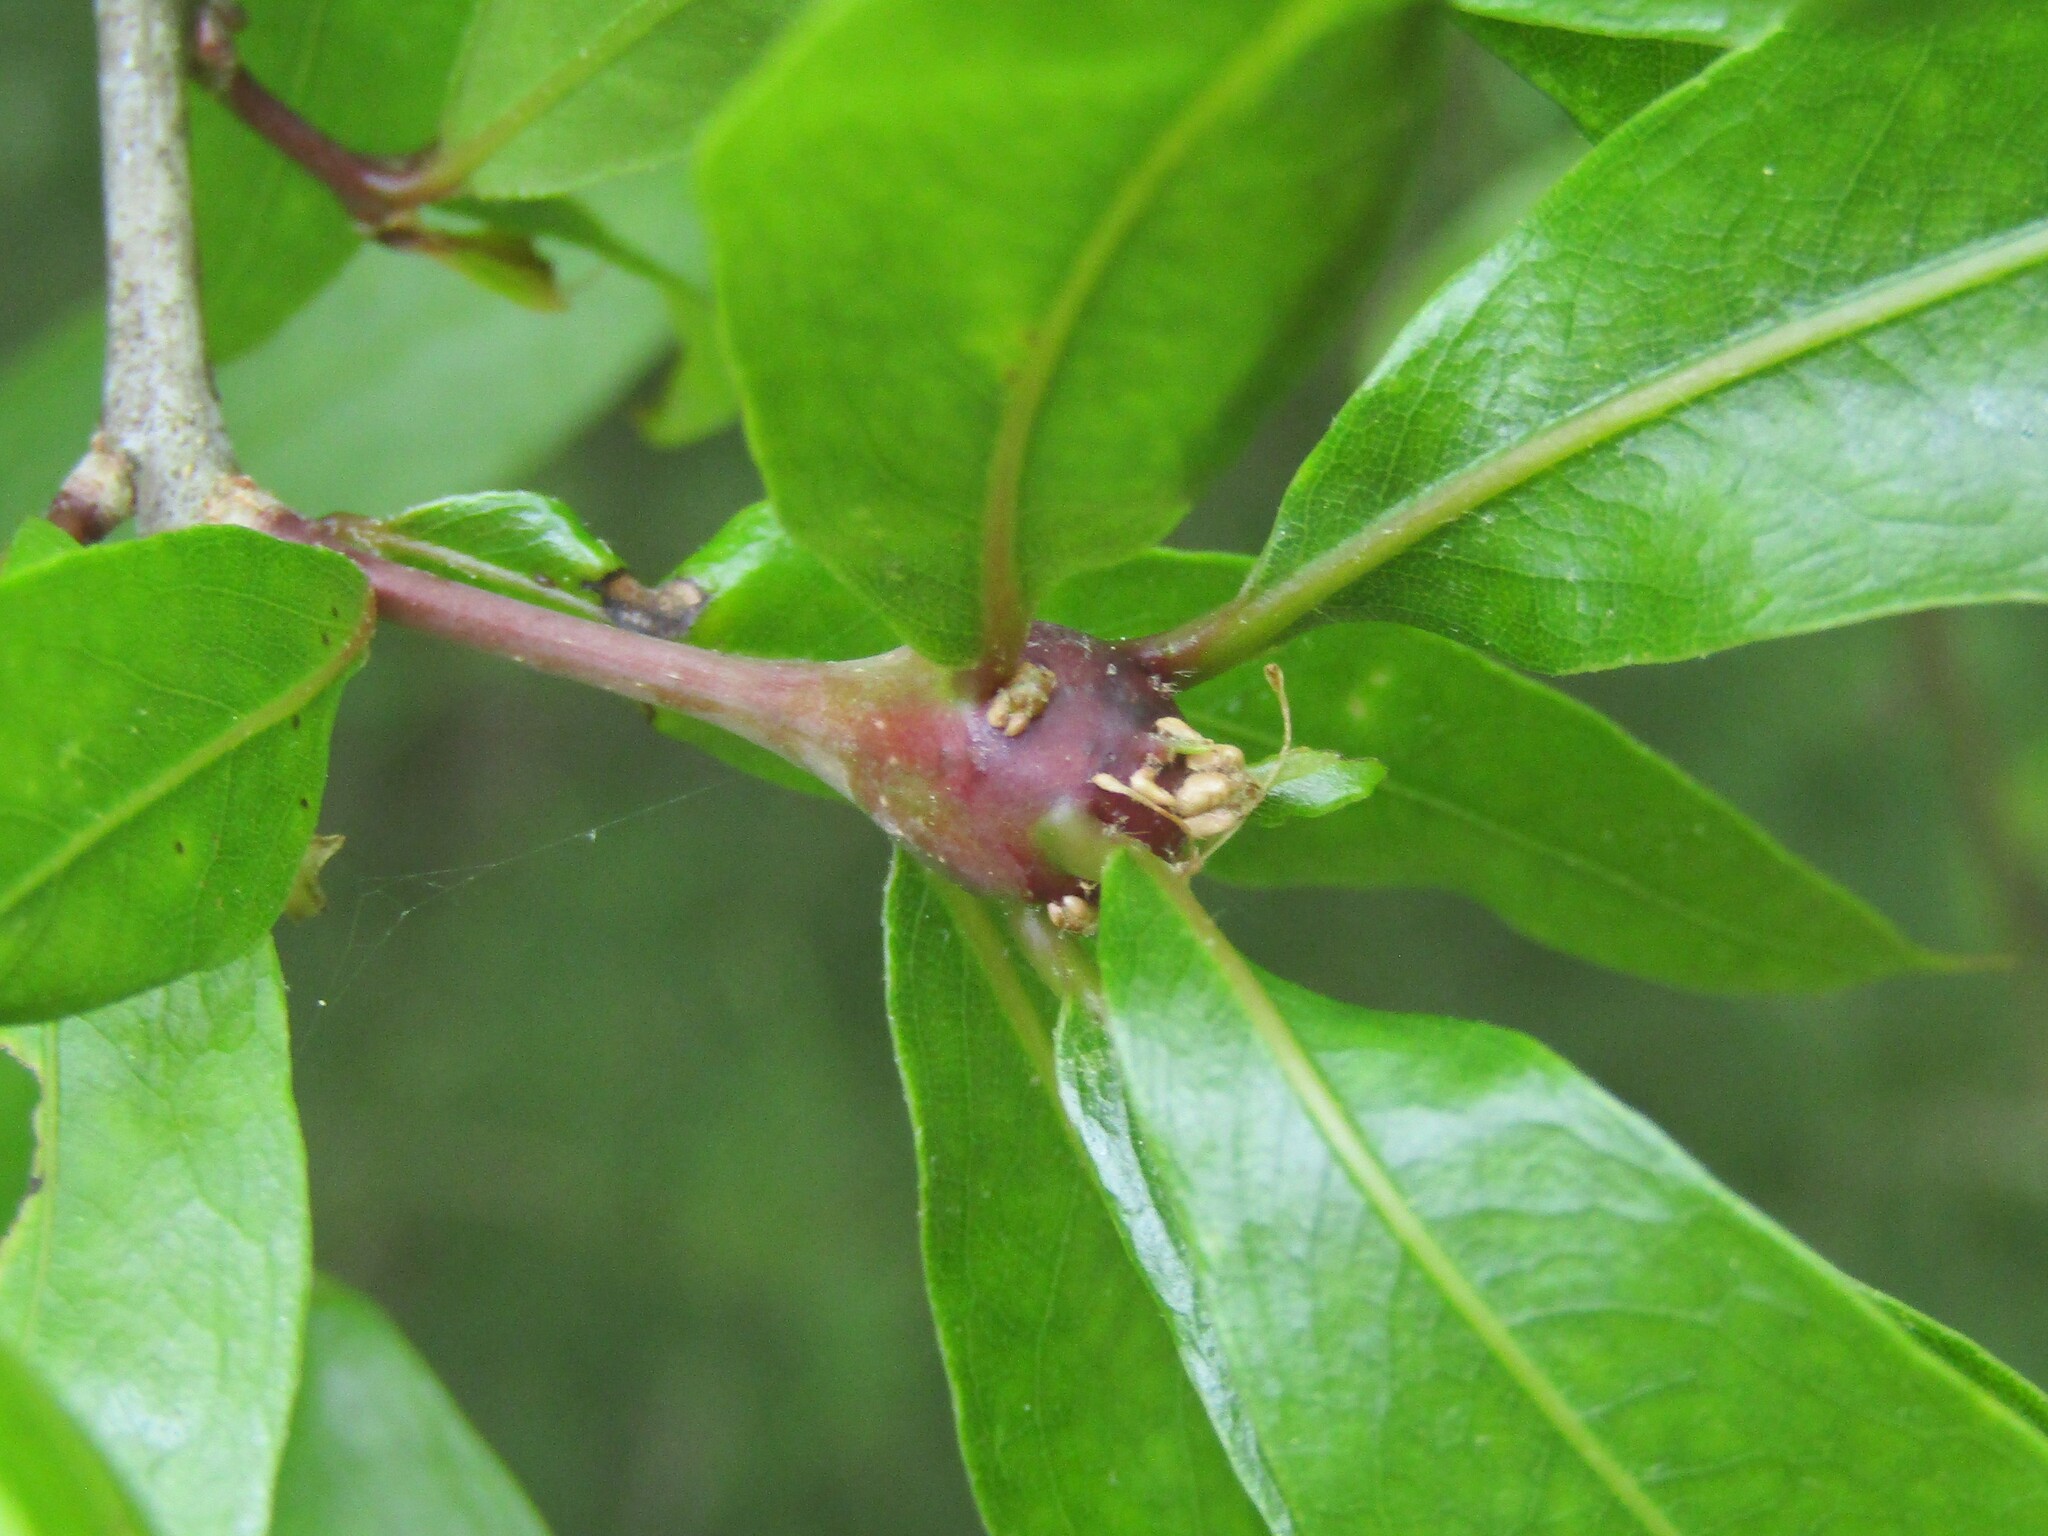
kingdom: Animalia
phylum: Arthropoda
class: Insecta
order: Hymenoptera
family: Cynipidae
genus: Zapatella
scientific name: Zapatella quercusphellos
